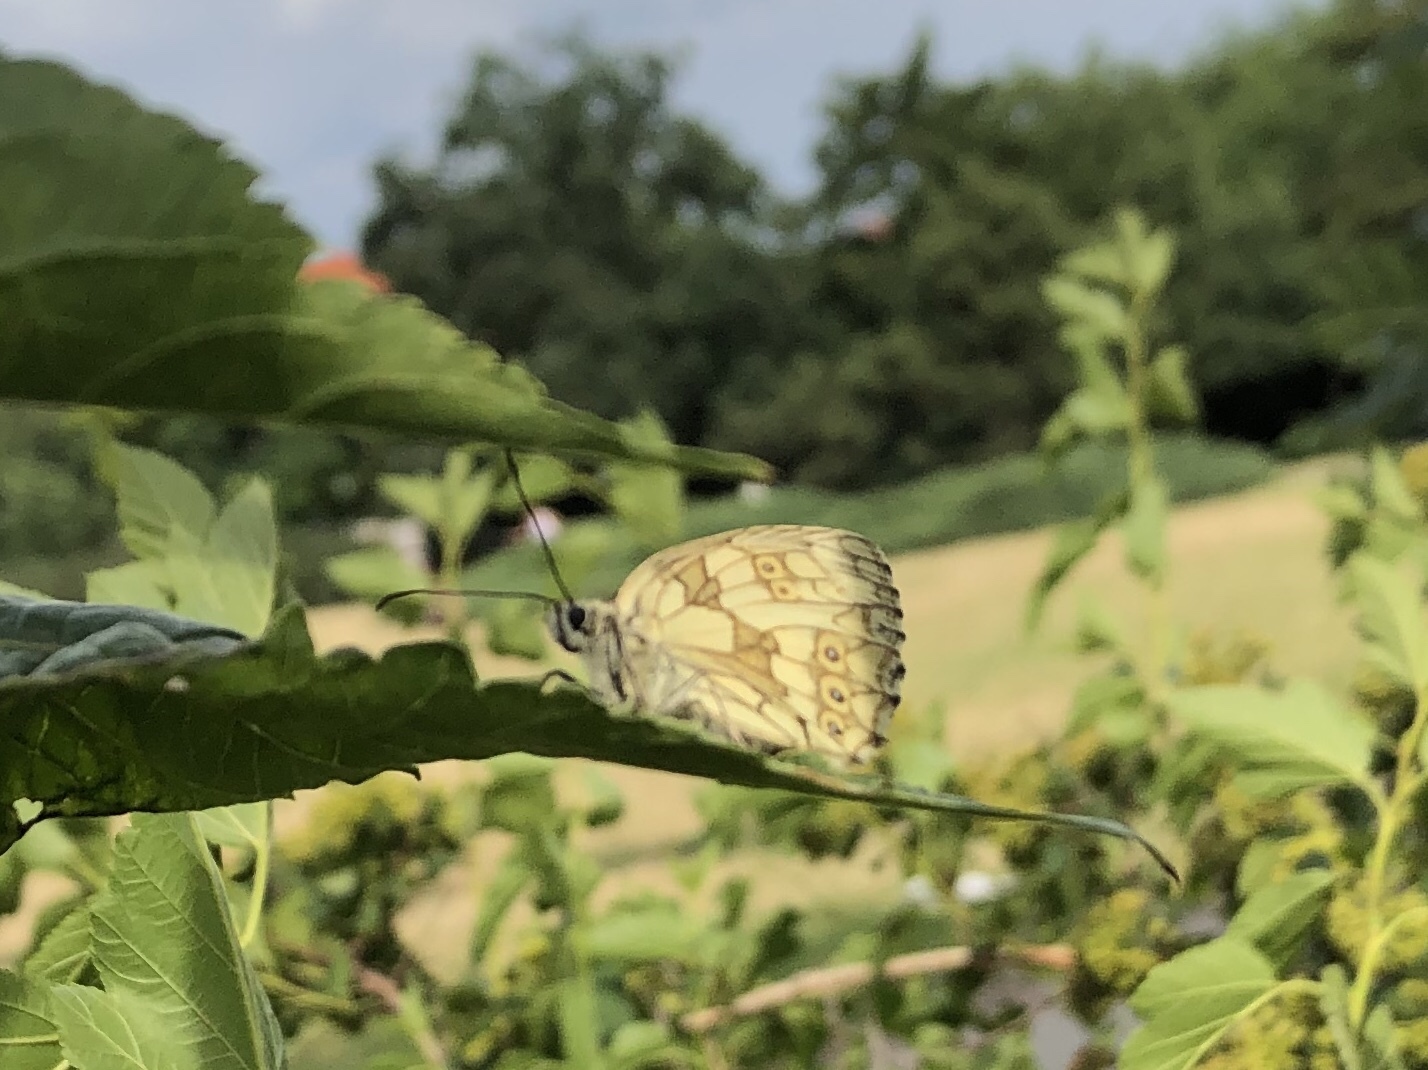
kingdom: Animalia
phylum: Arthropoda
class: Insecta
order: Lepidoptera
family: Nymphalidae
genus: Melanargia
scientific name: Melanargia galathea
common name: Marbled white
